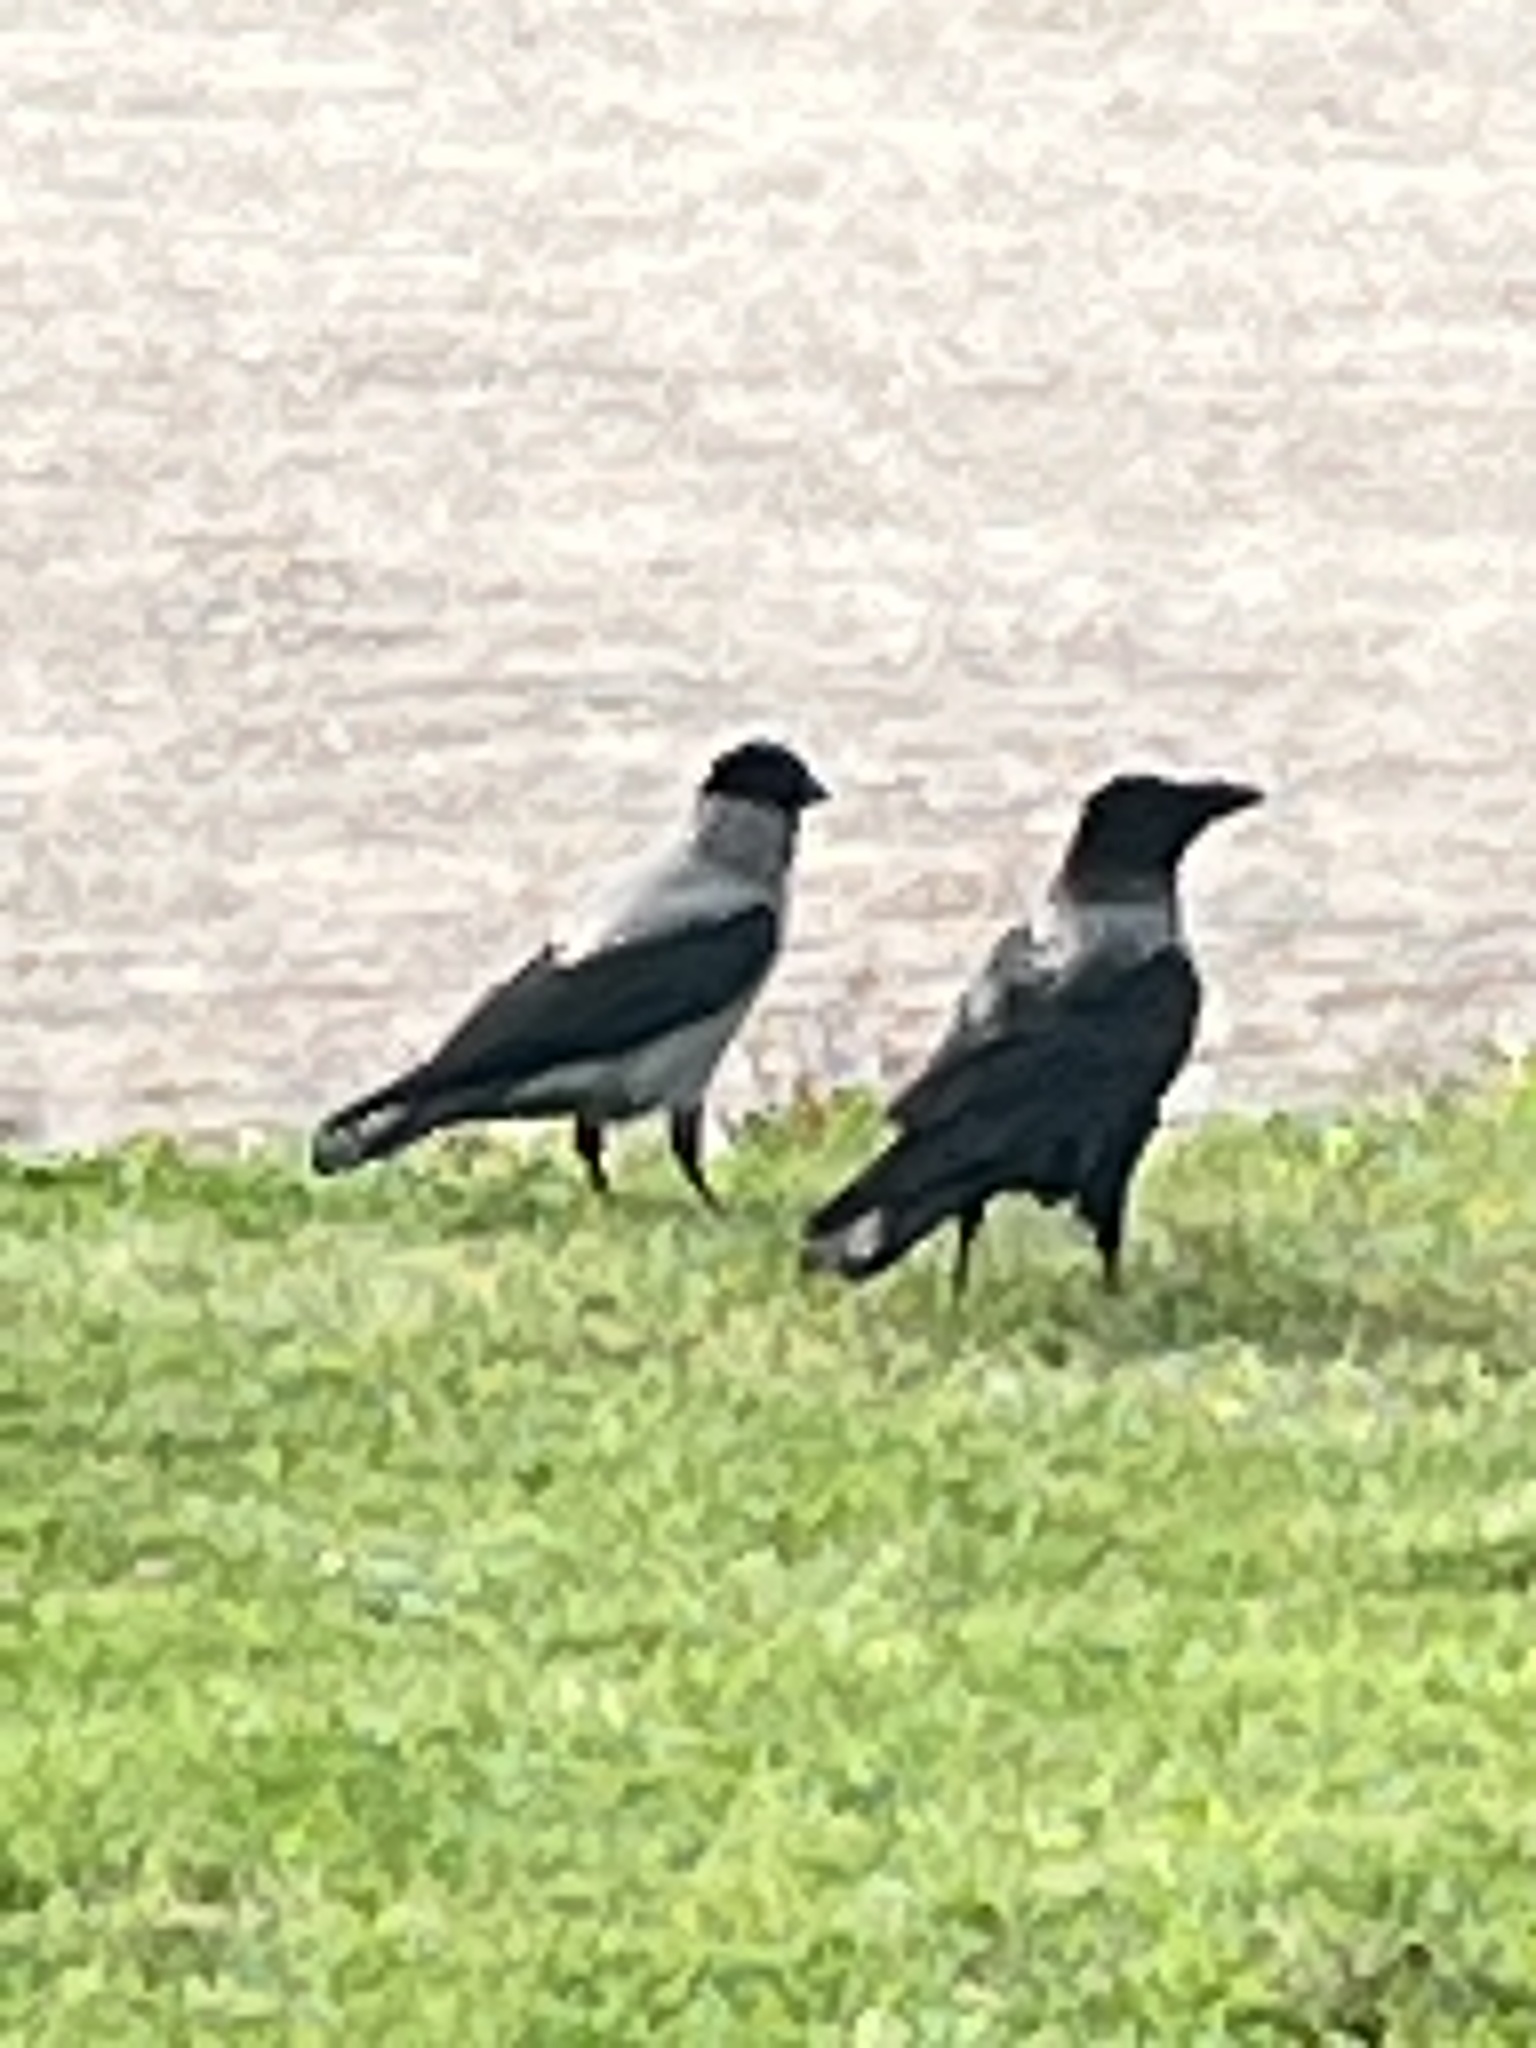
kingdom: Animalia
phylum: Chordata
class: Aves
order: Passeriformes
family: Corvidae
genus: Corvus
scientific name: Corvus cornix
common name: Hooded crow
